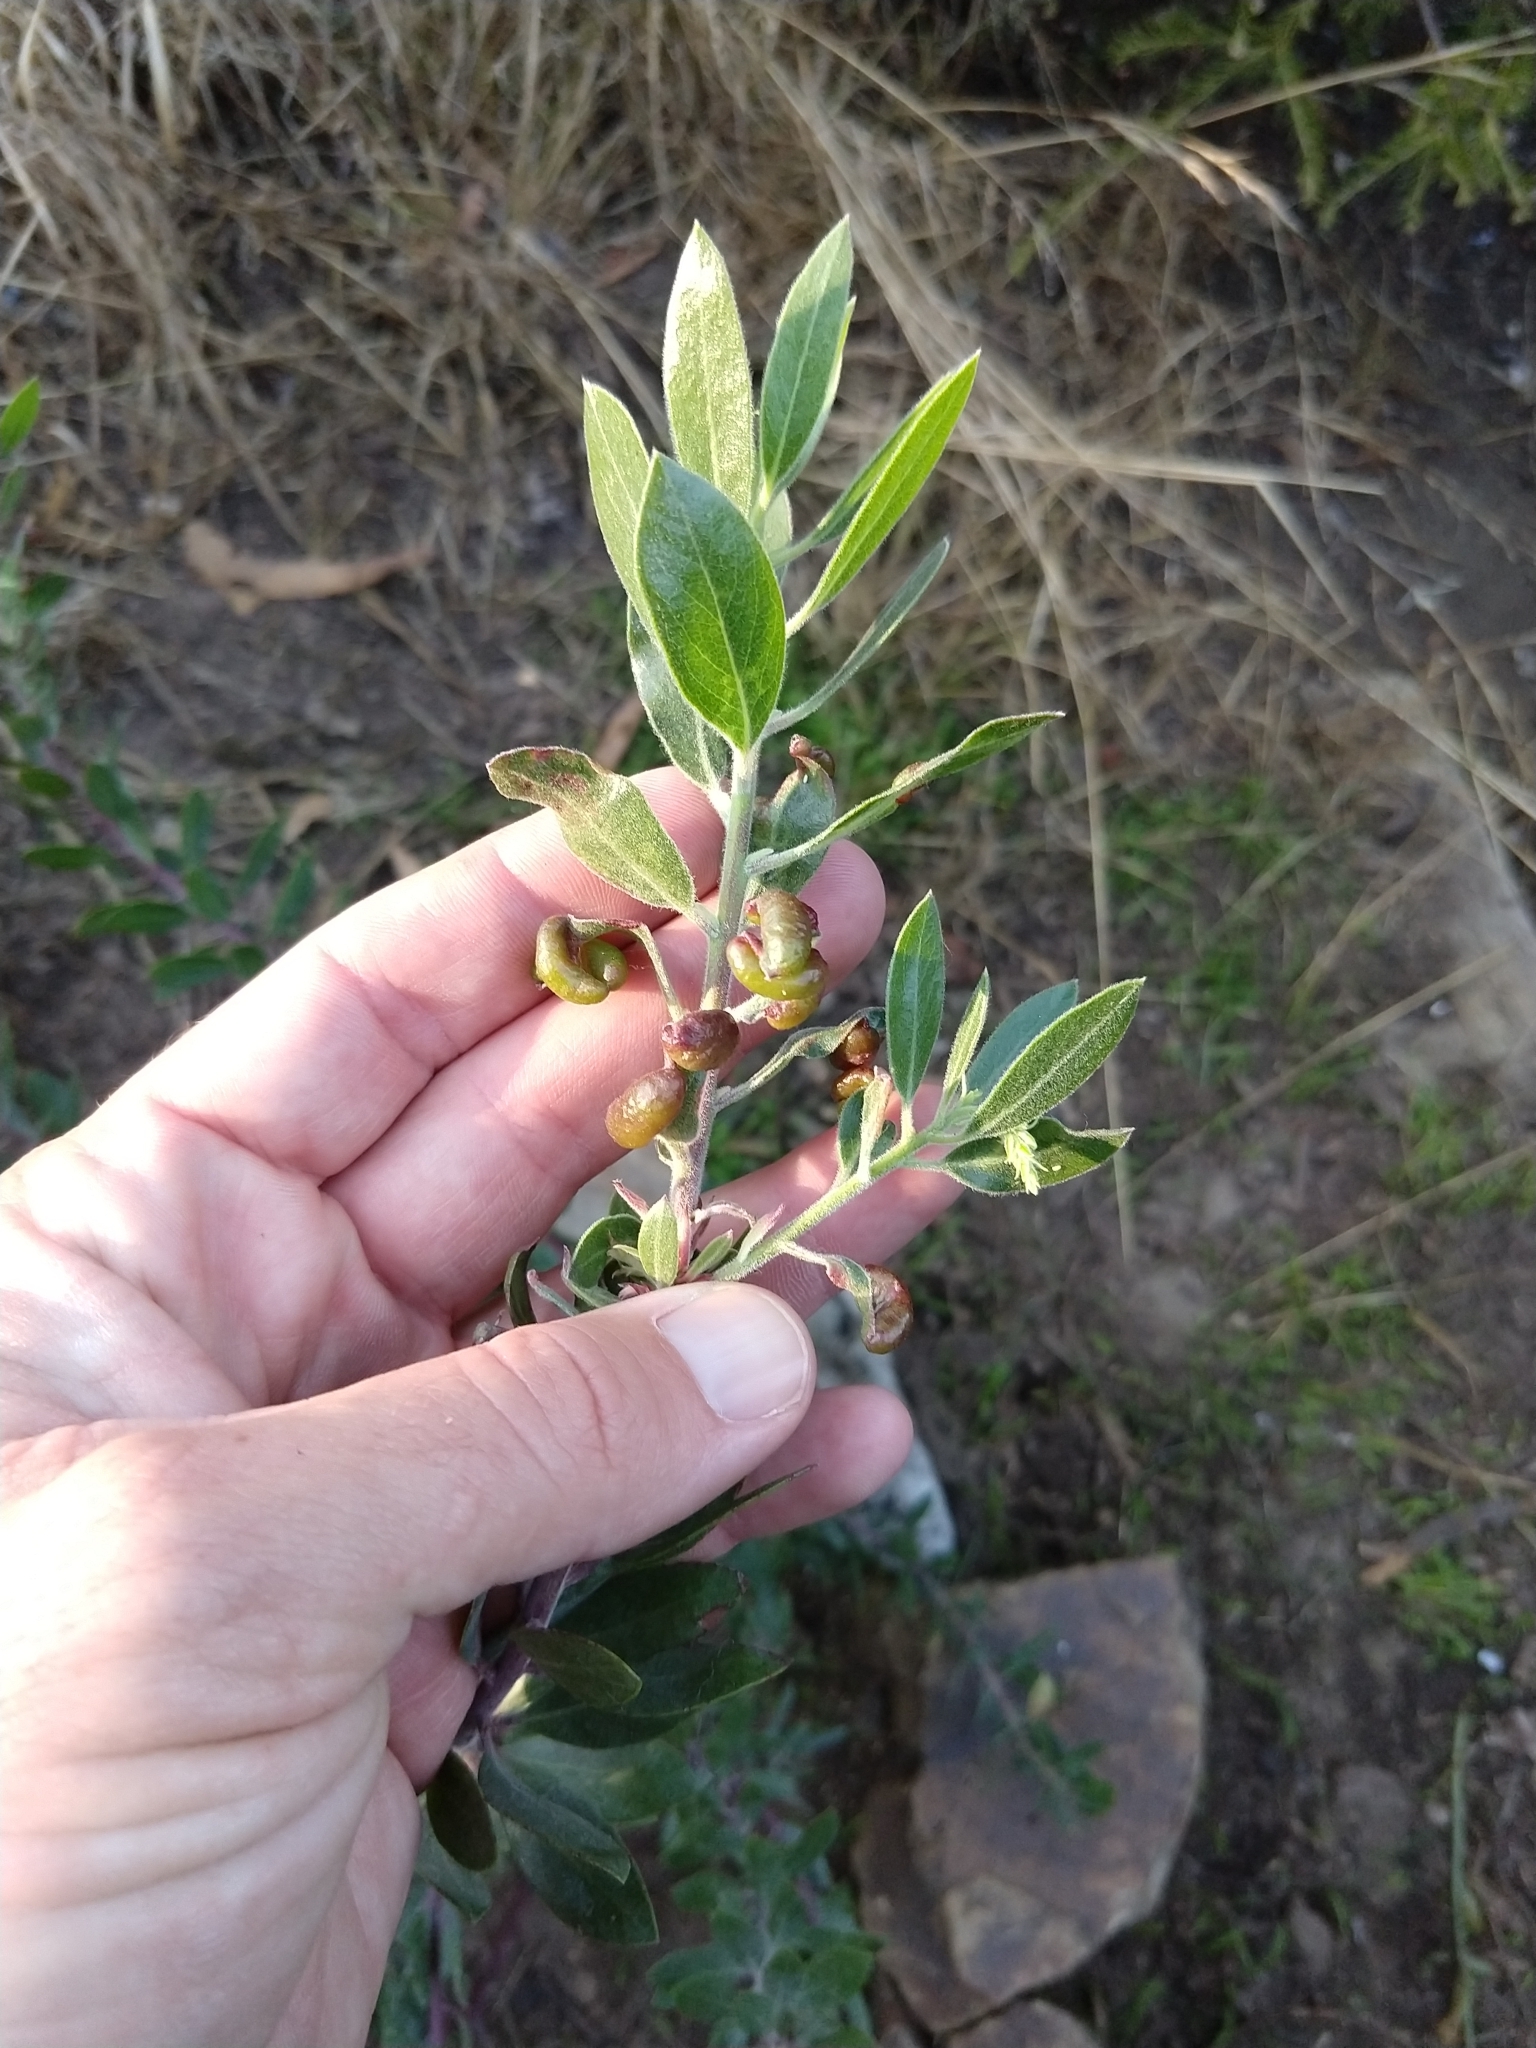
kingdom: Animalia
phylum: Arthropoda
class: Insecta
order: Hemiptera
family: Aphididae
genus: Tamalia
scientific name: Tamalia coweni
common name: Manzanita leafgall aphid
